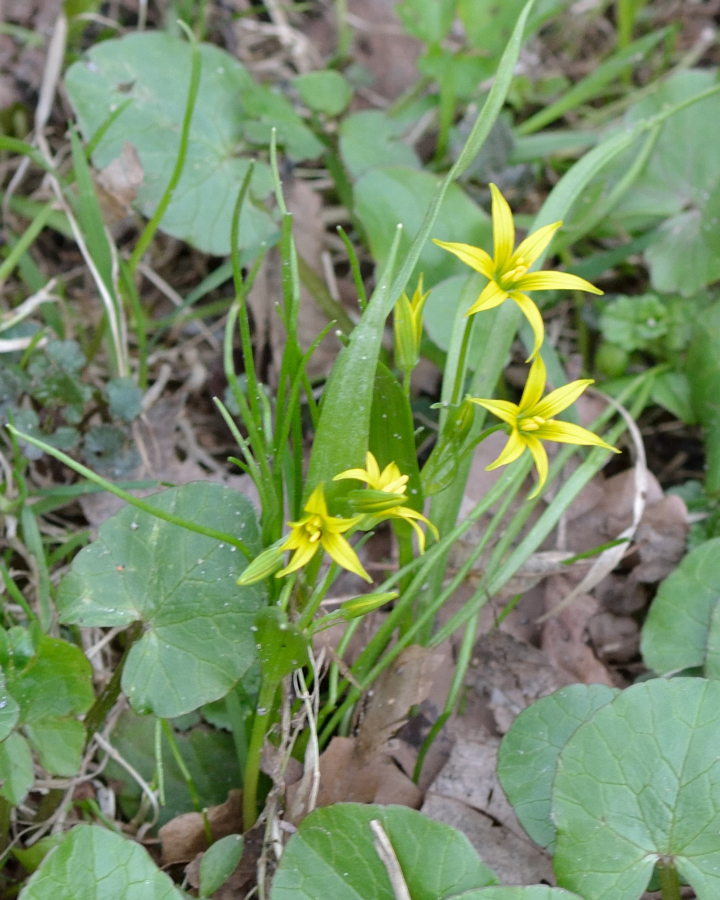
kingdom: Plantae
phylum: Tracheophyta
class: Liliopsida
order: Liliales
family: Liliaceae
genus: Gagea
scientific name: Gagea minima
